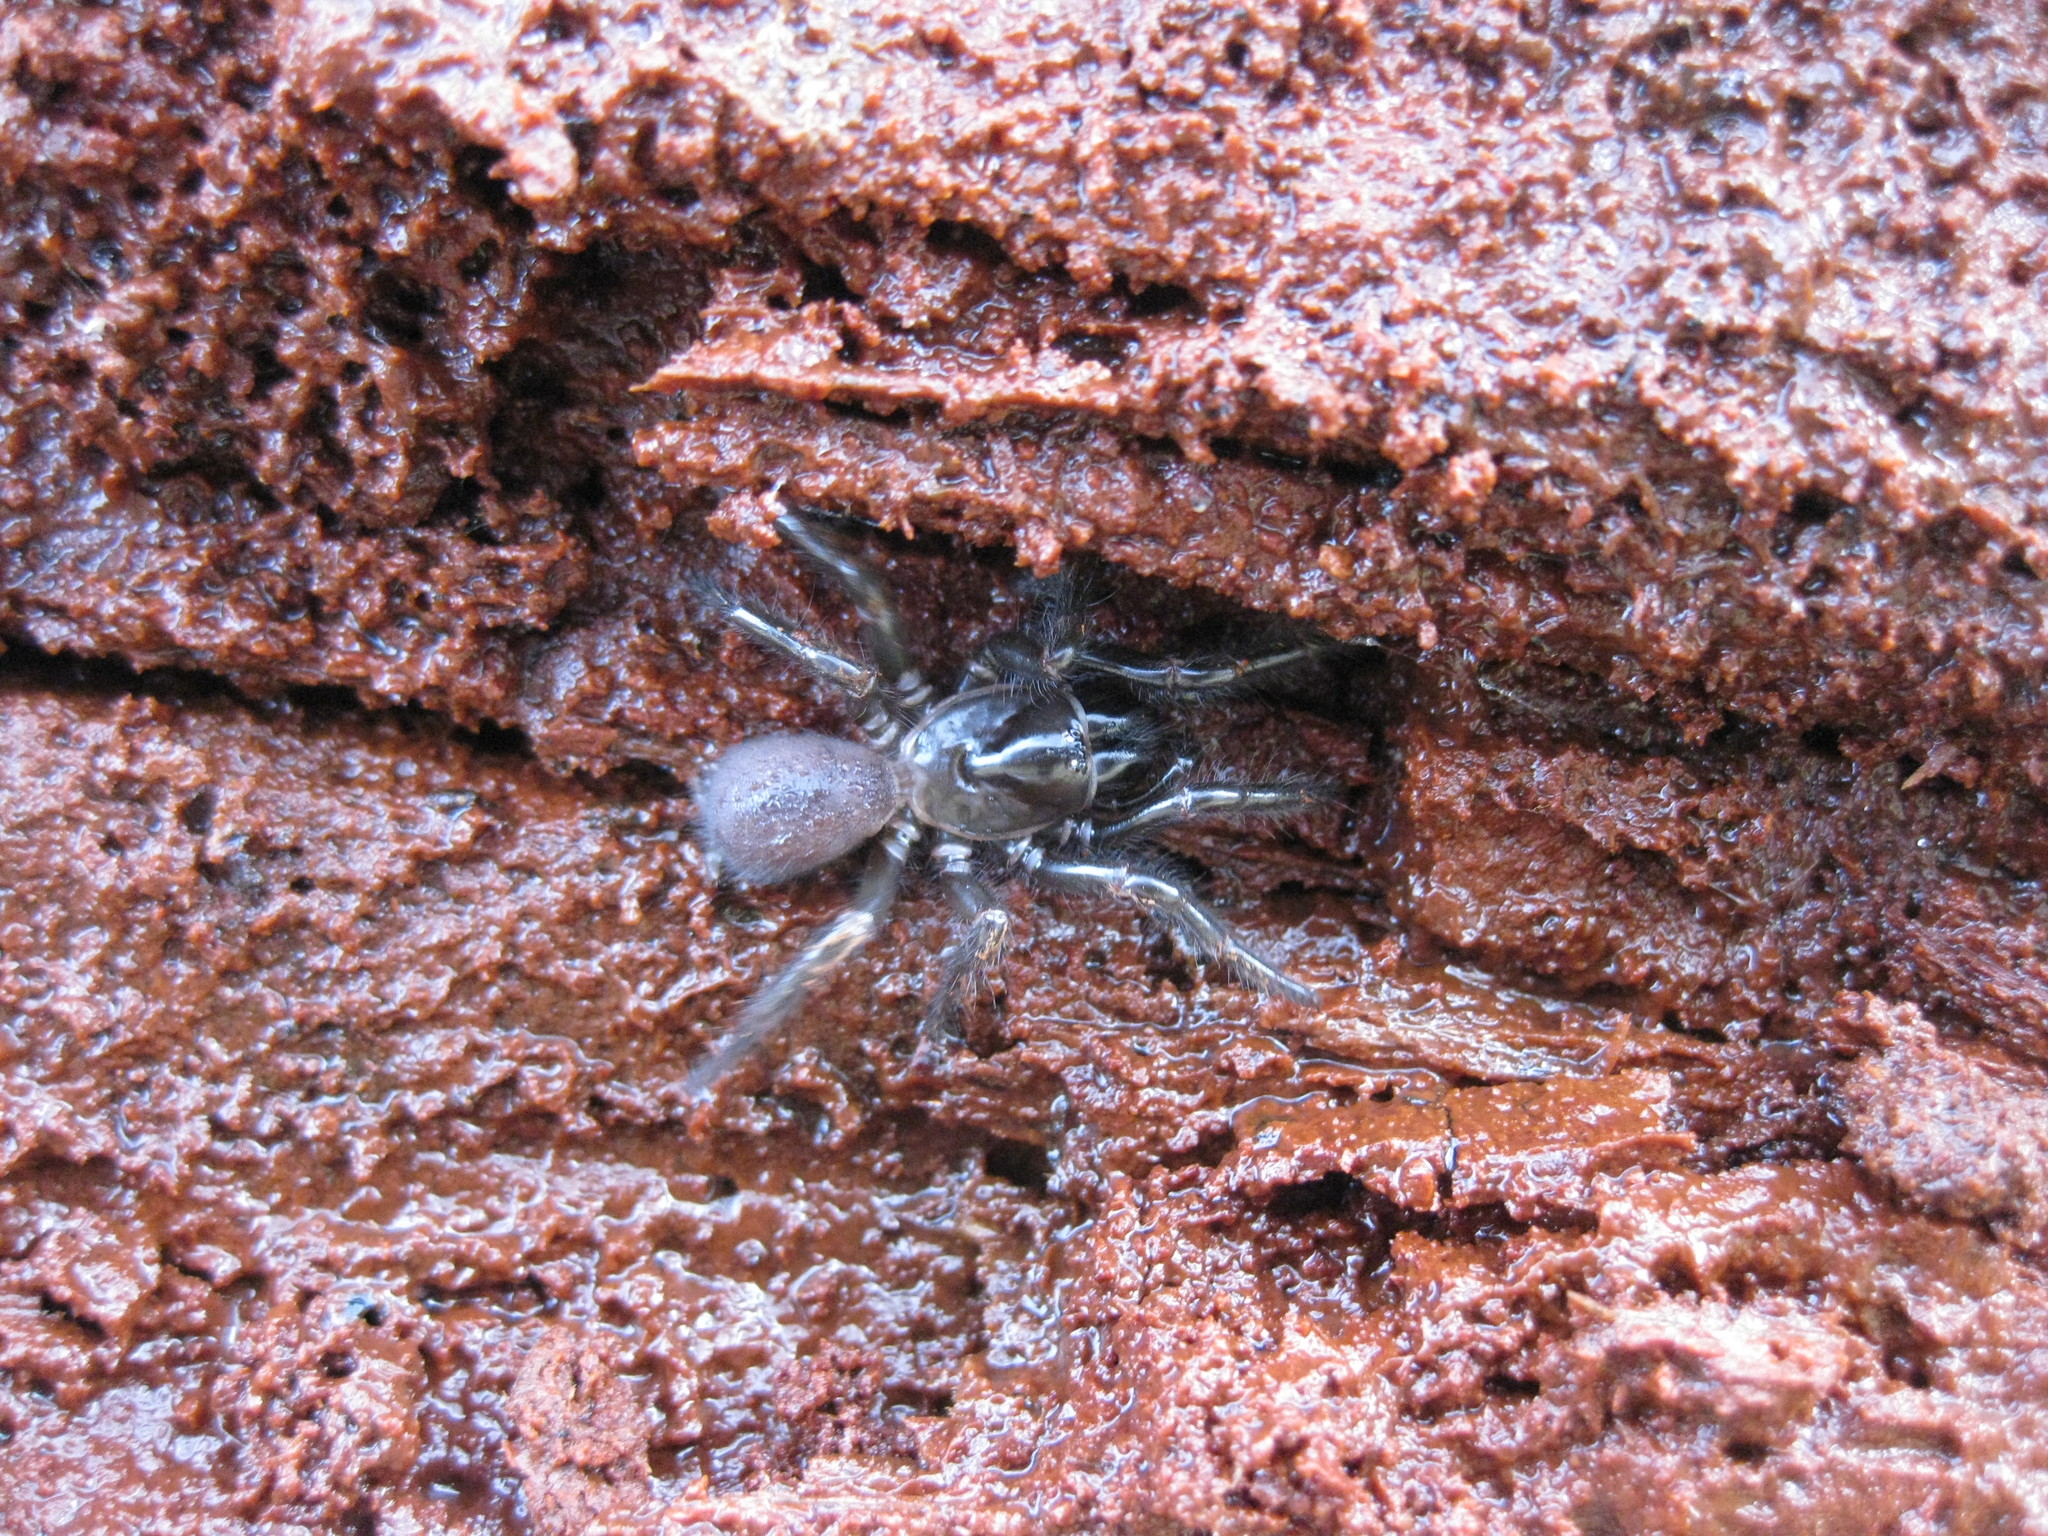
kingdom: Animalia
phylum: Arthropoda
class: Arachnida
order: Araneae
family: Atracidae
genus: Hadronyche
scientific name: Hadronyche formidabilis
